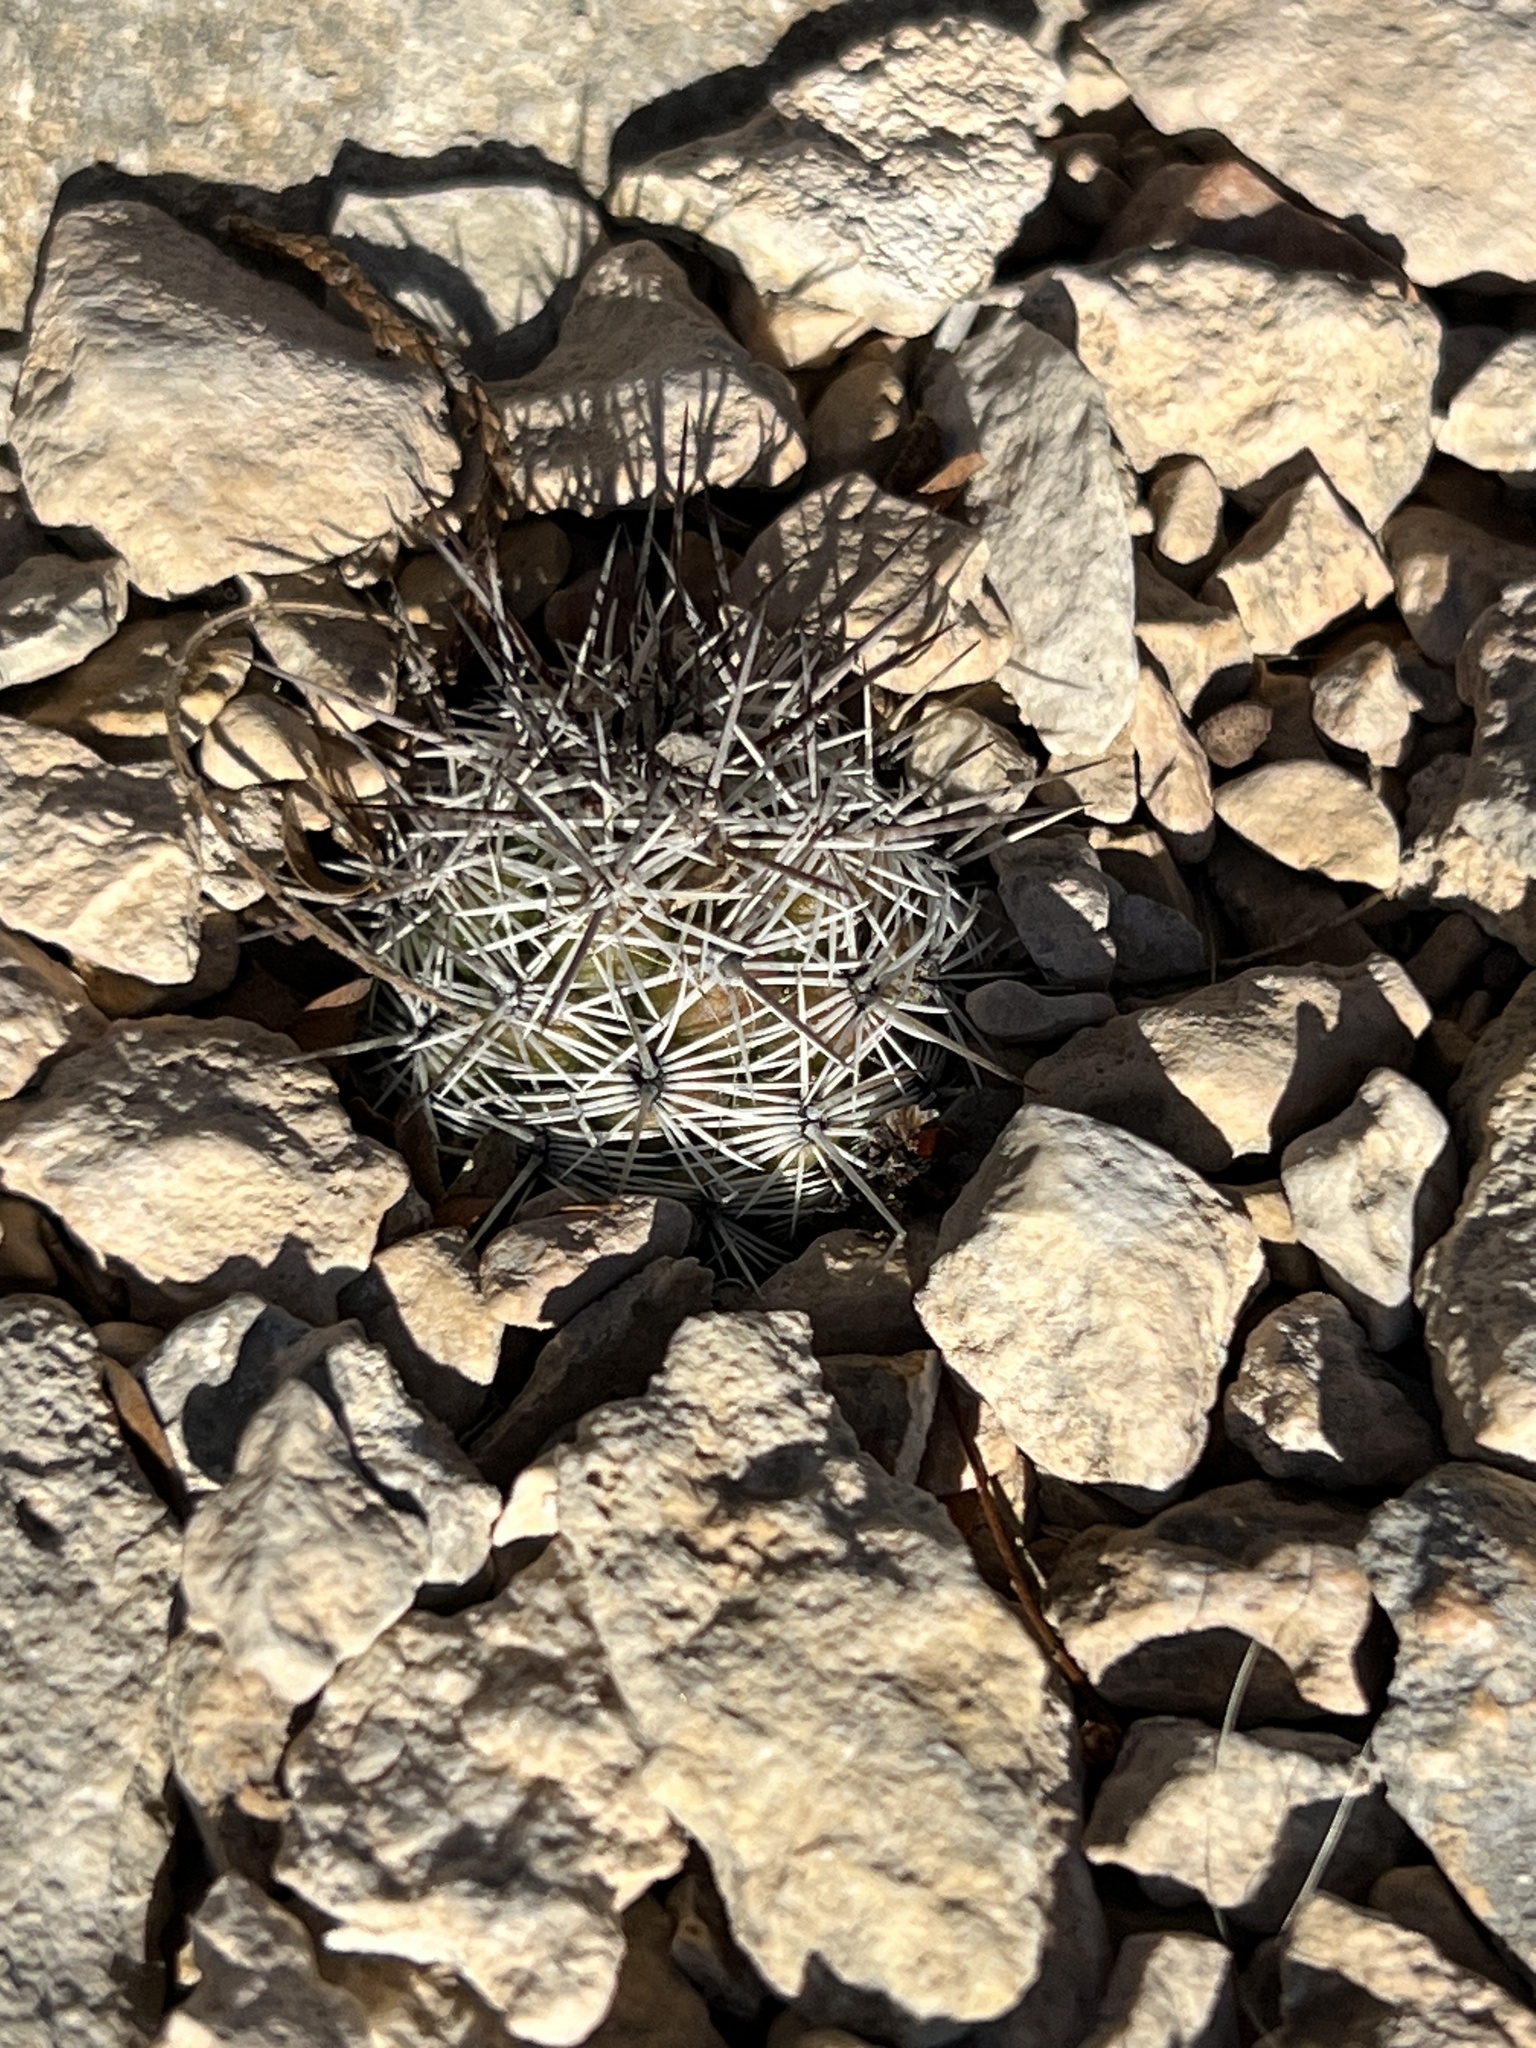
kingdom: Plantae
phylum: Tracheophyta
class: Magnoliopsida
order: Caryophyllales
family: Cactaceae
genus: Cochemiea
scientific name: Cochemiea conoidea
